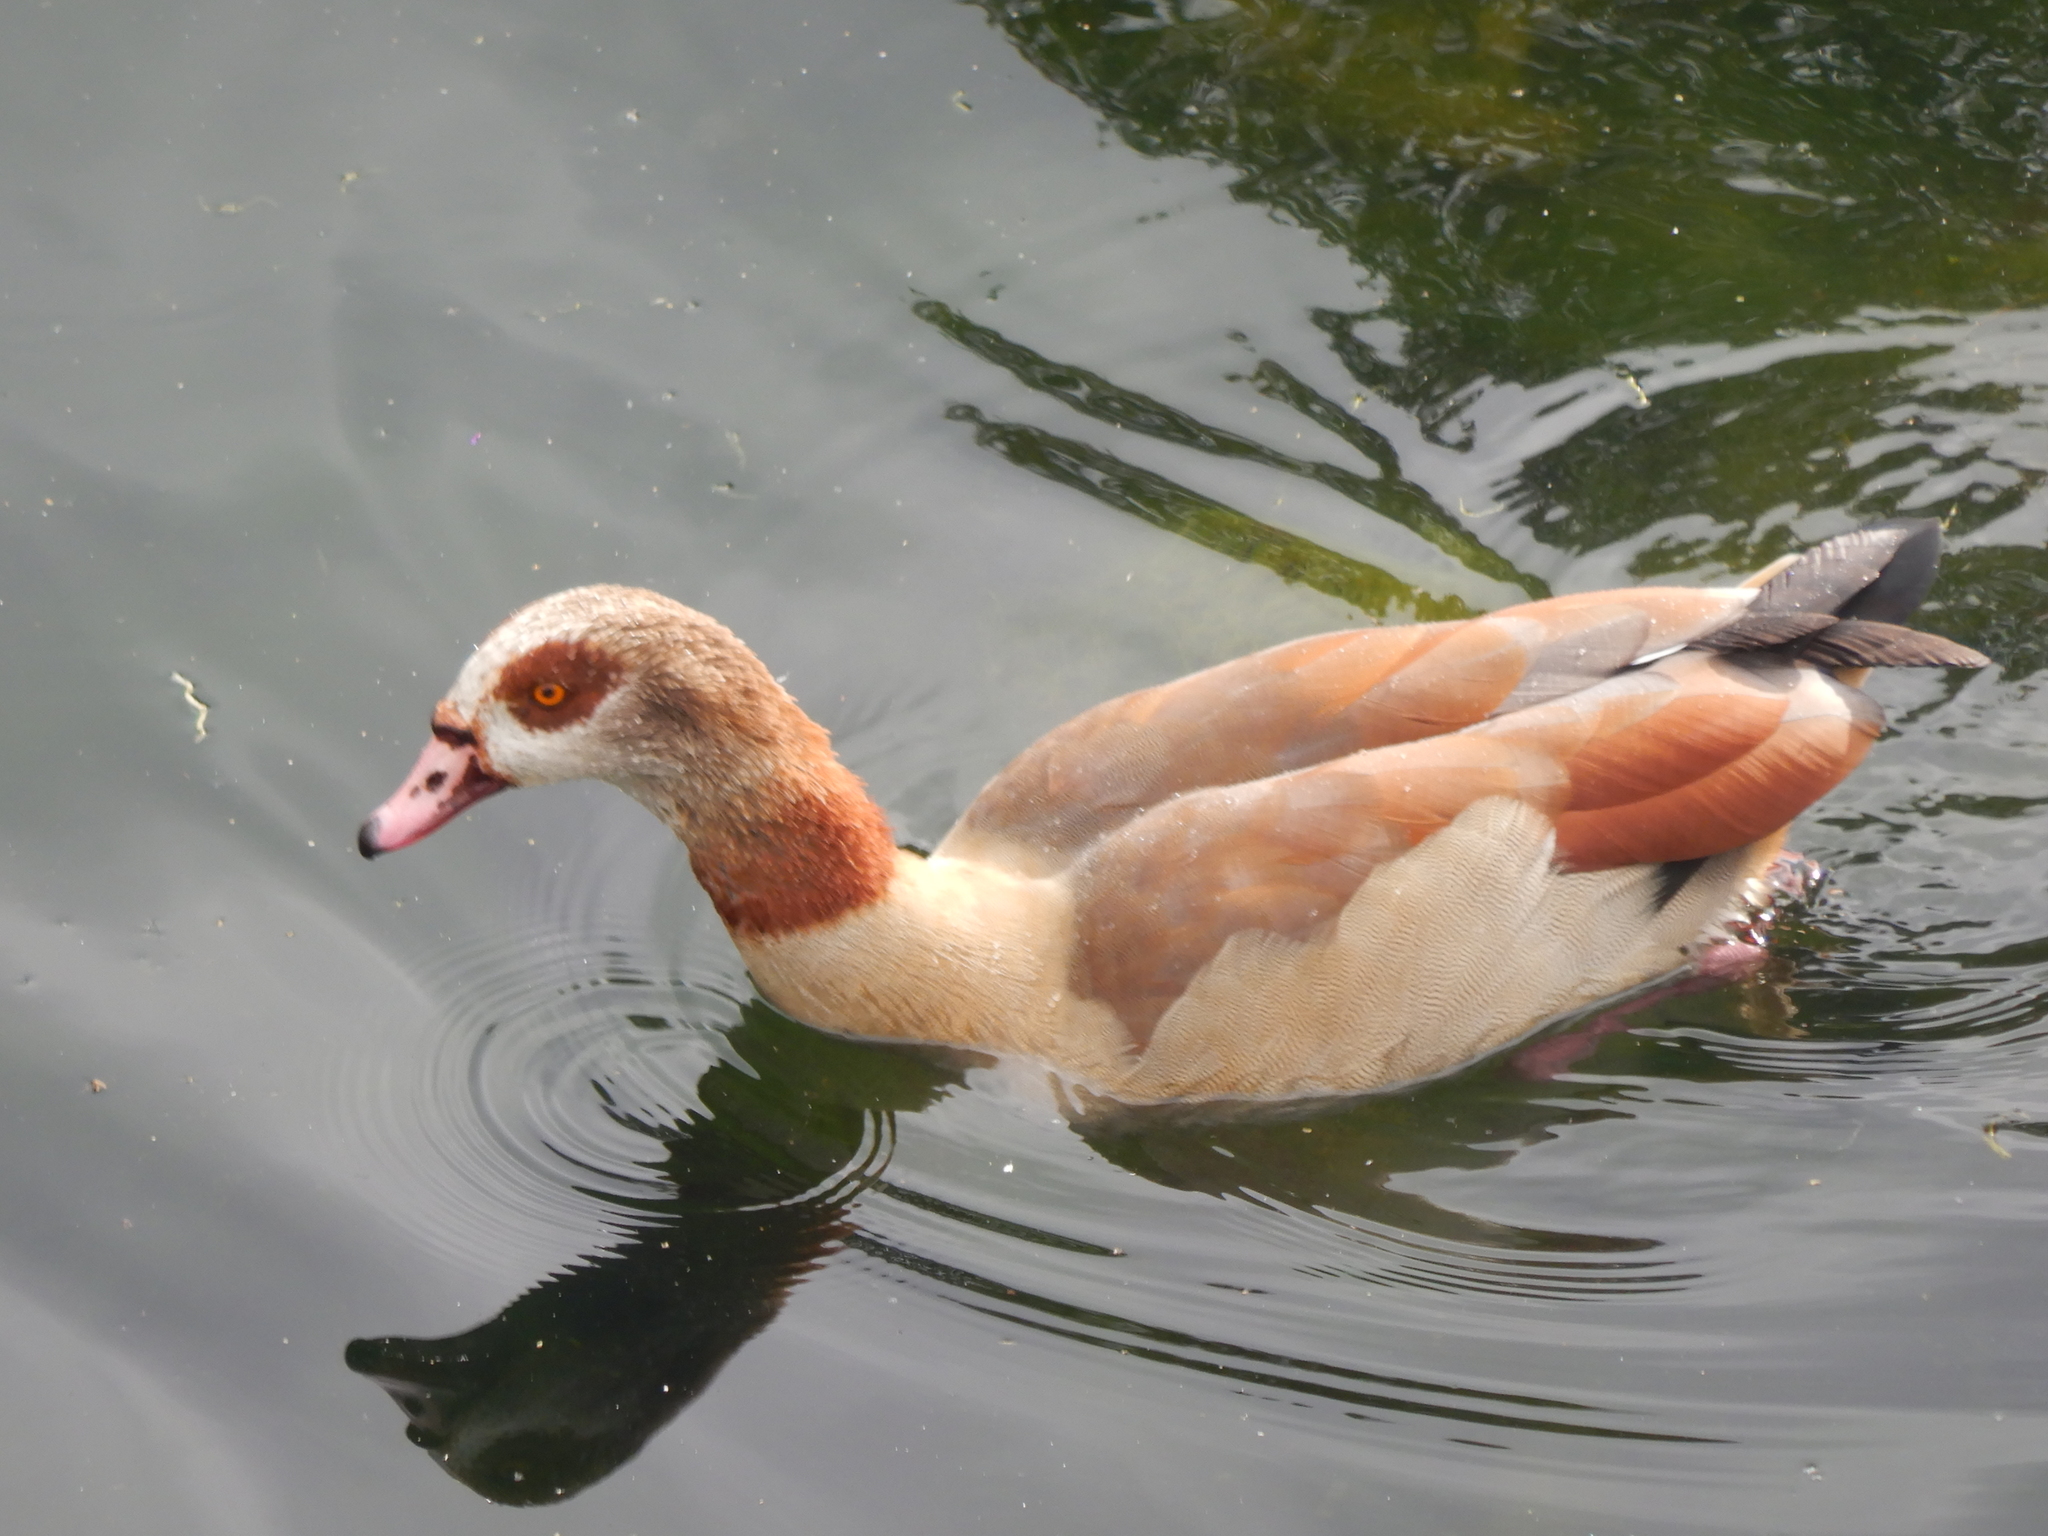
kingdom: Animalia
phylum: Chordata
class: Aves
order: Anseriformes
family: Anatidae
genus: Alopochen
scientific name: Alopochen aegyptiaca
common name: Egyptian goose
